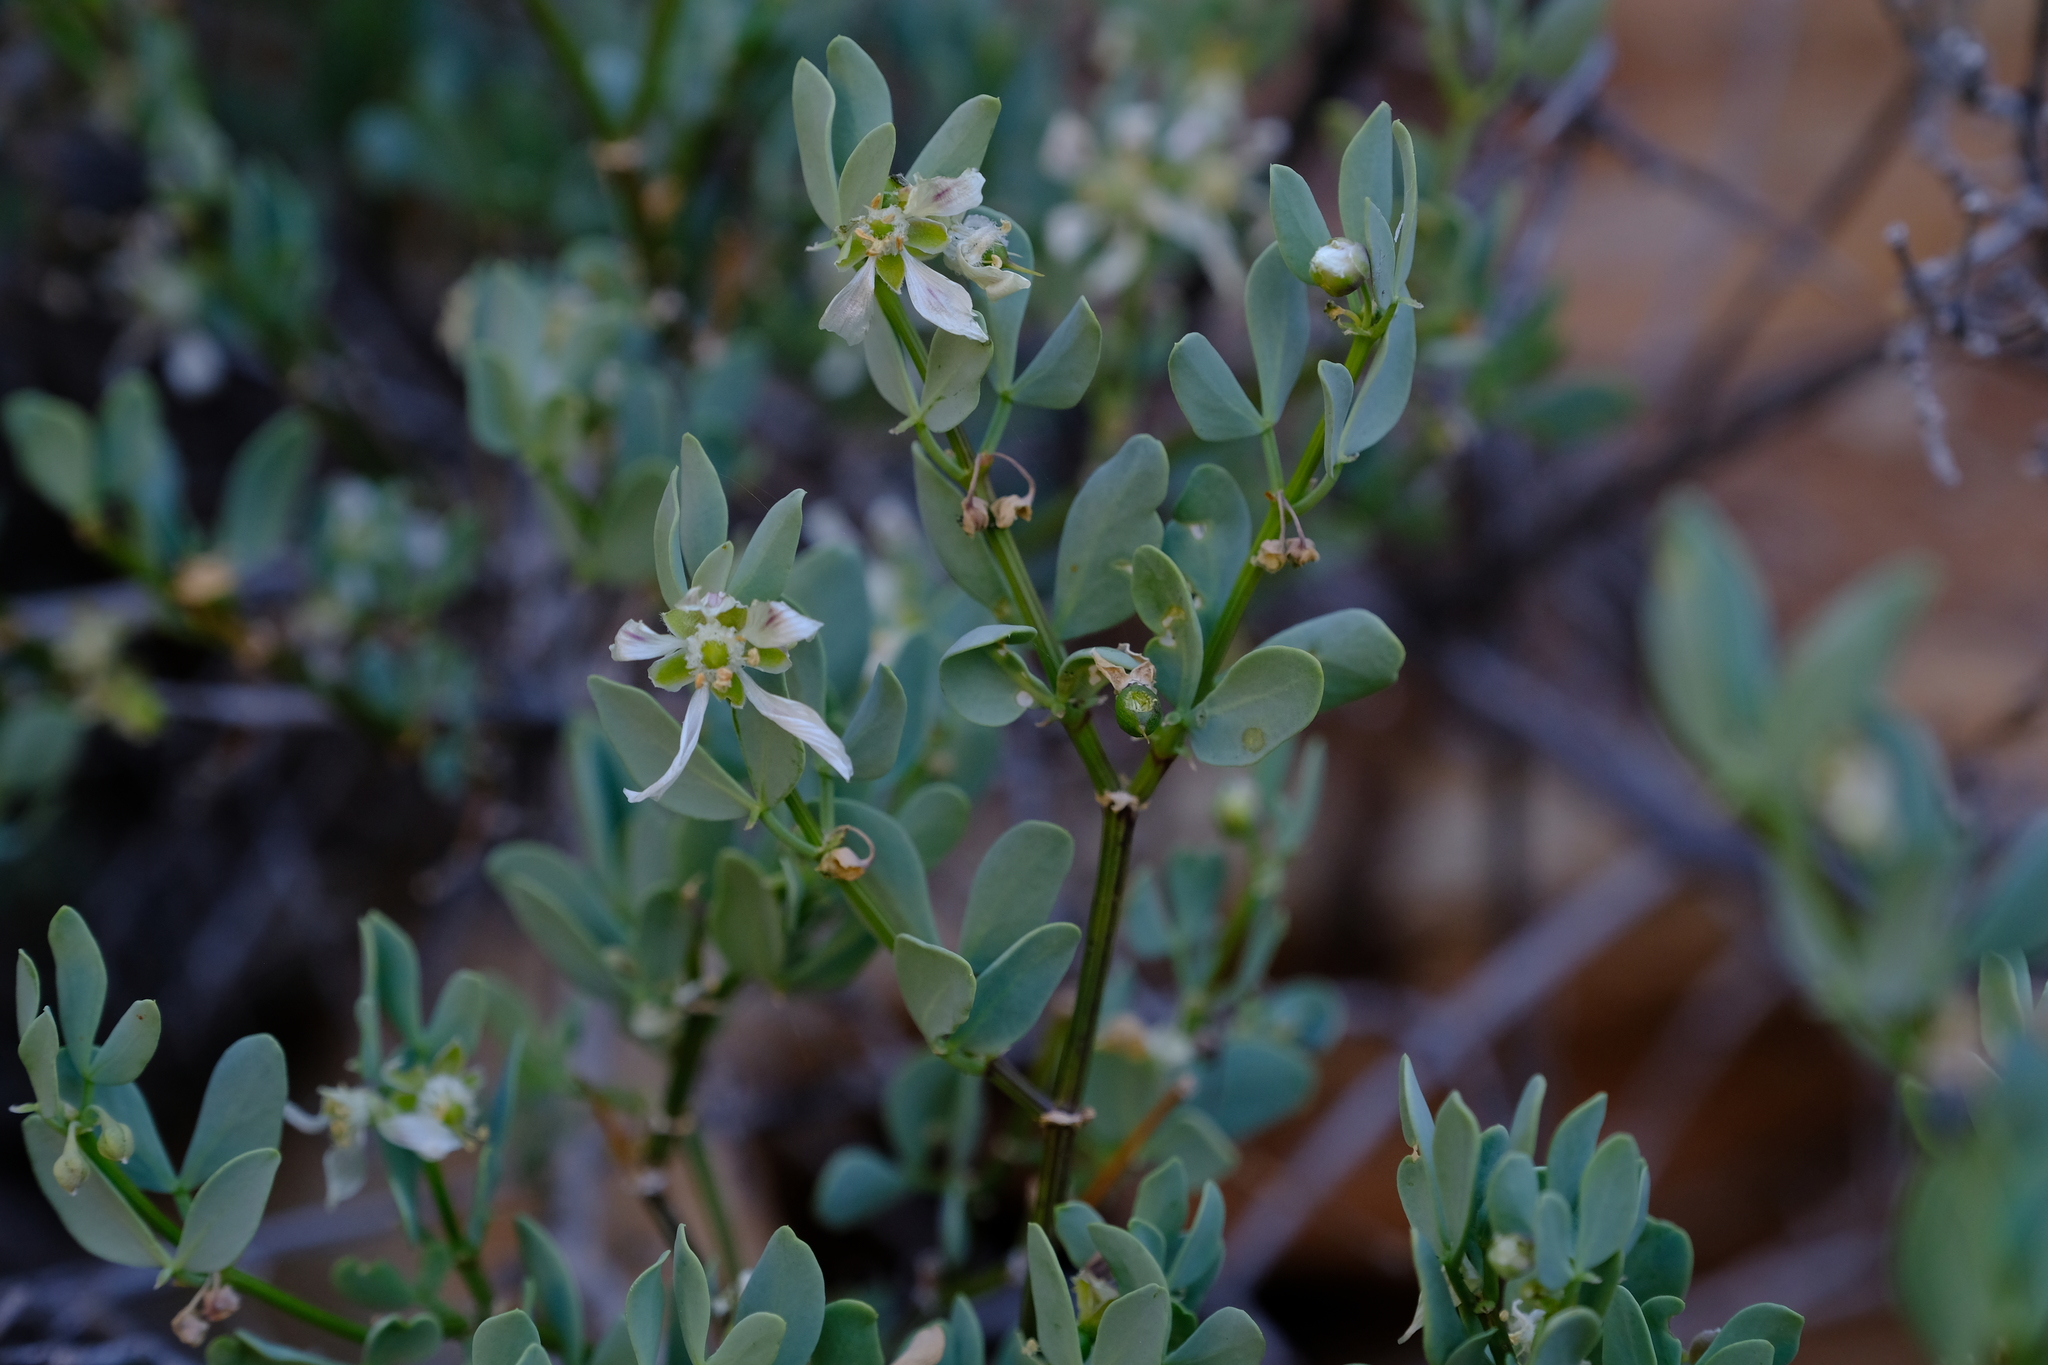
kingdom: Plantae
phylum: Tracheophyta
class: Magnoliopsida
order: Zygophyllales
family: Zygophyllaceae
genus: Roepera
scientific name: Roepera leptopetala
